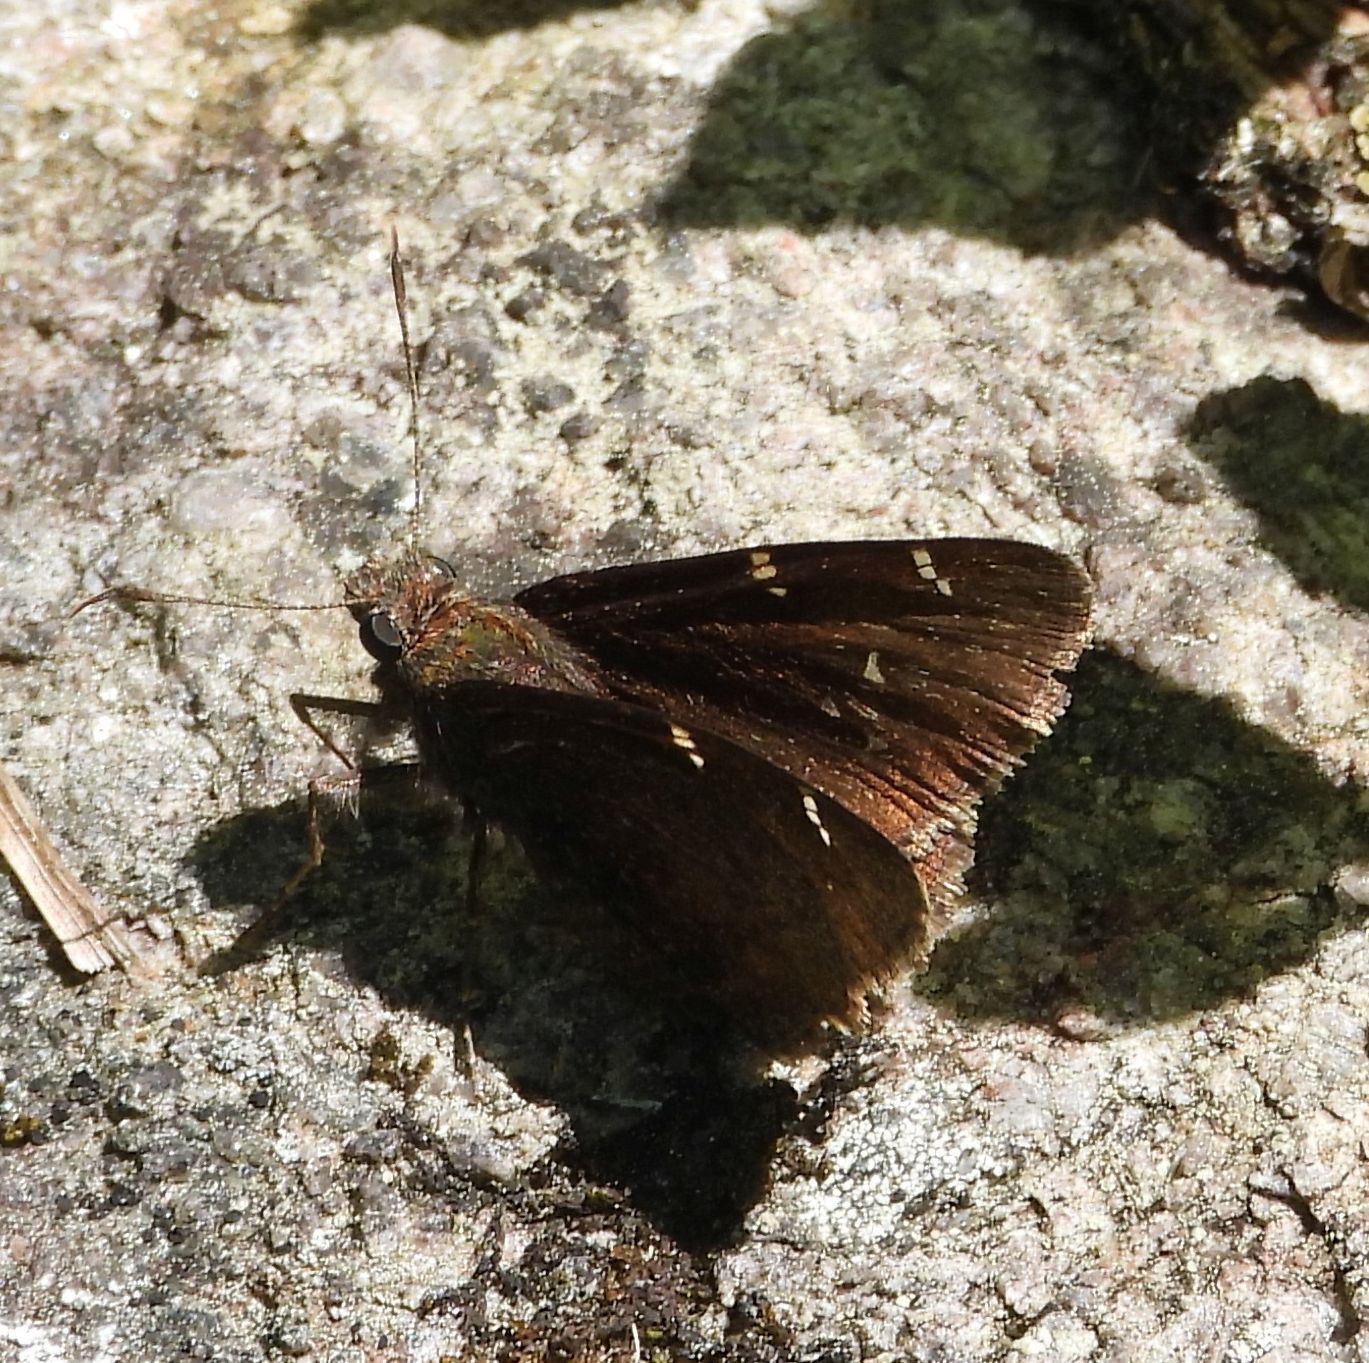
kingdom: Animalia
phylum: Arthropoda
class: Insecta
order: Lepidoptera
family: Hesperiidae
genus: Thorybes
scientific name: Thorybes pylades
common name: Northern cloudywing
